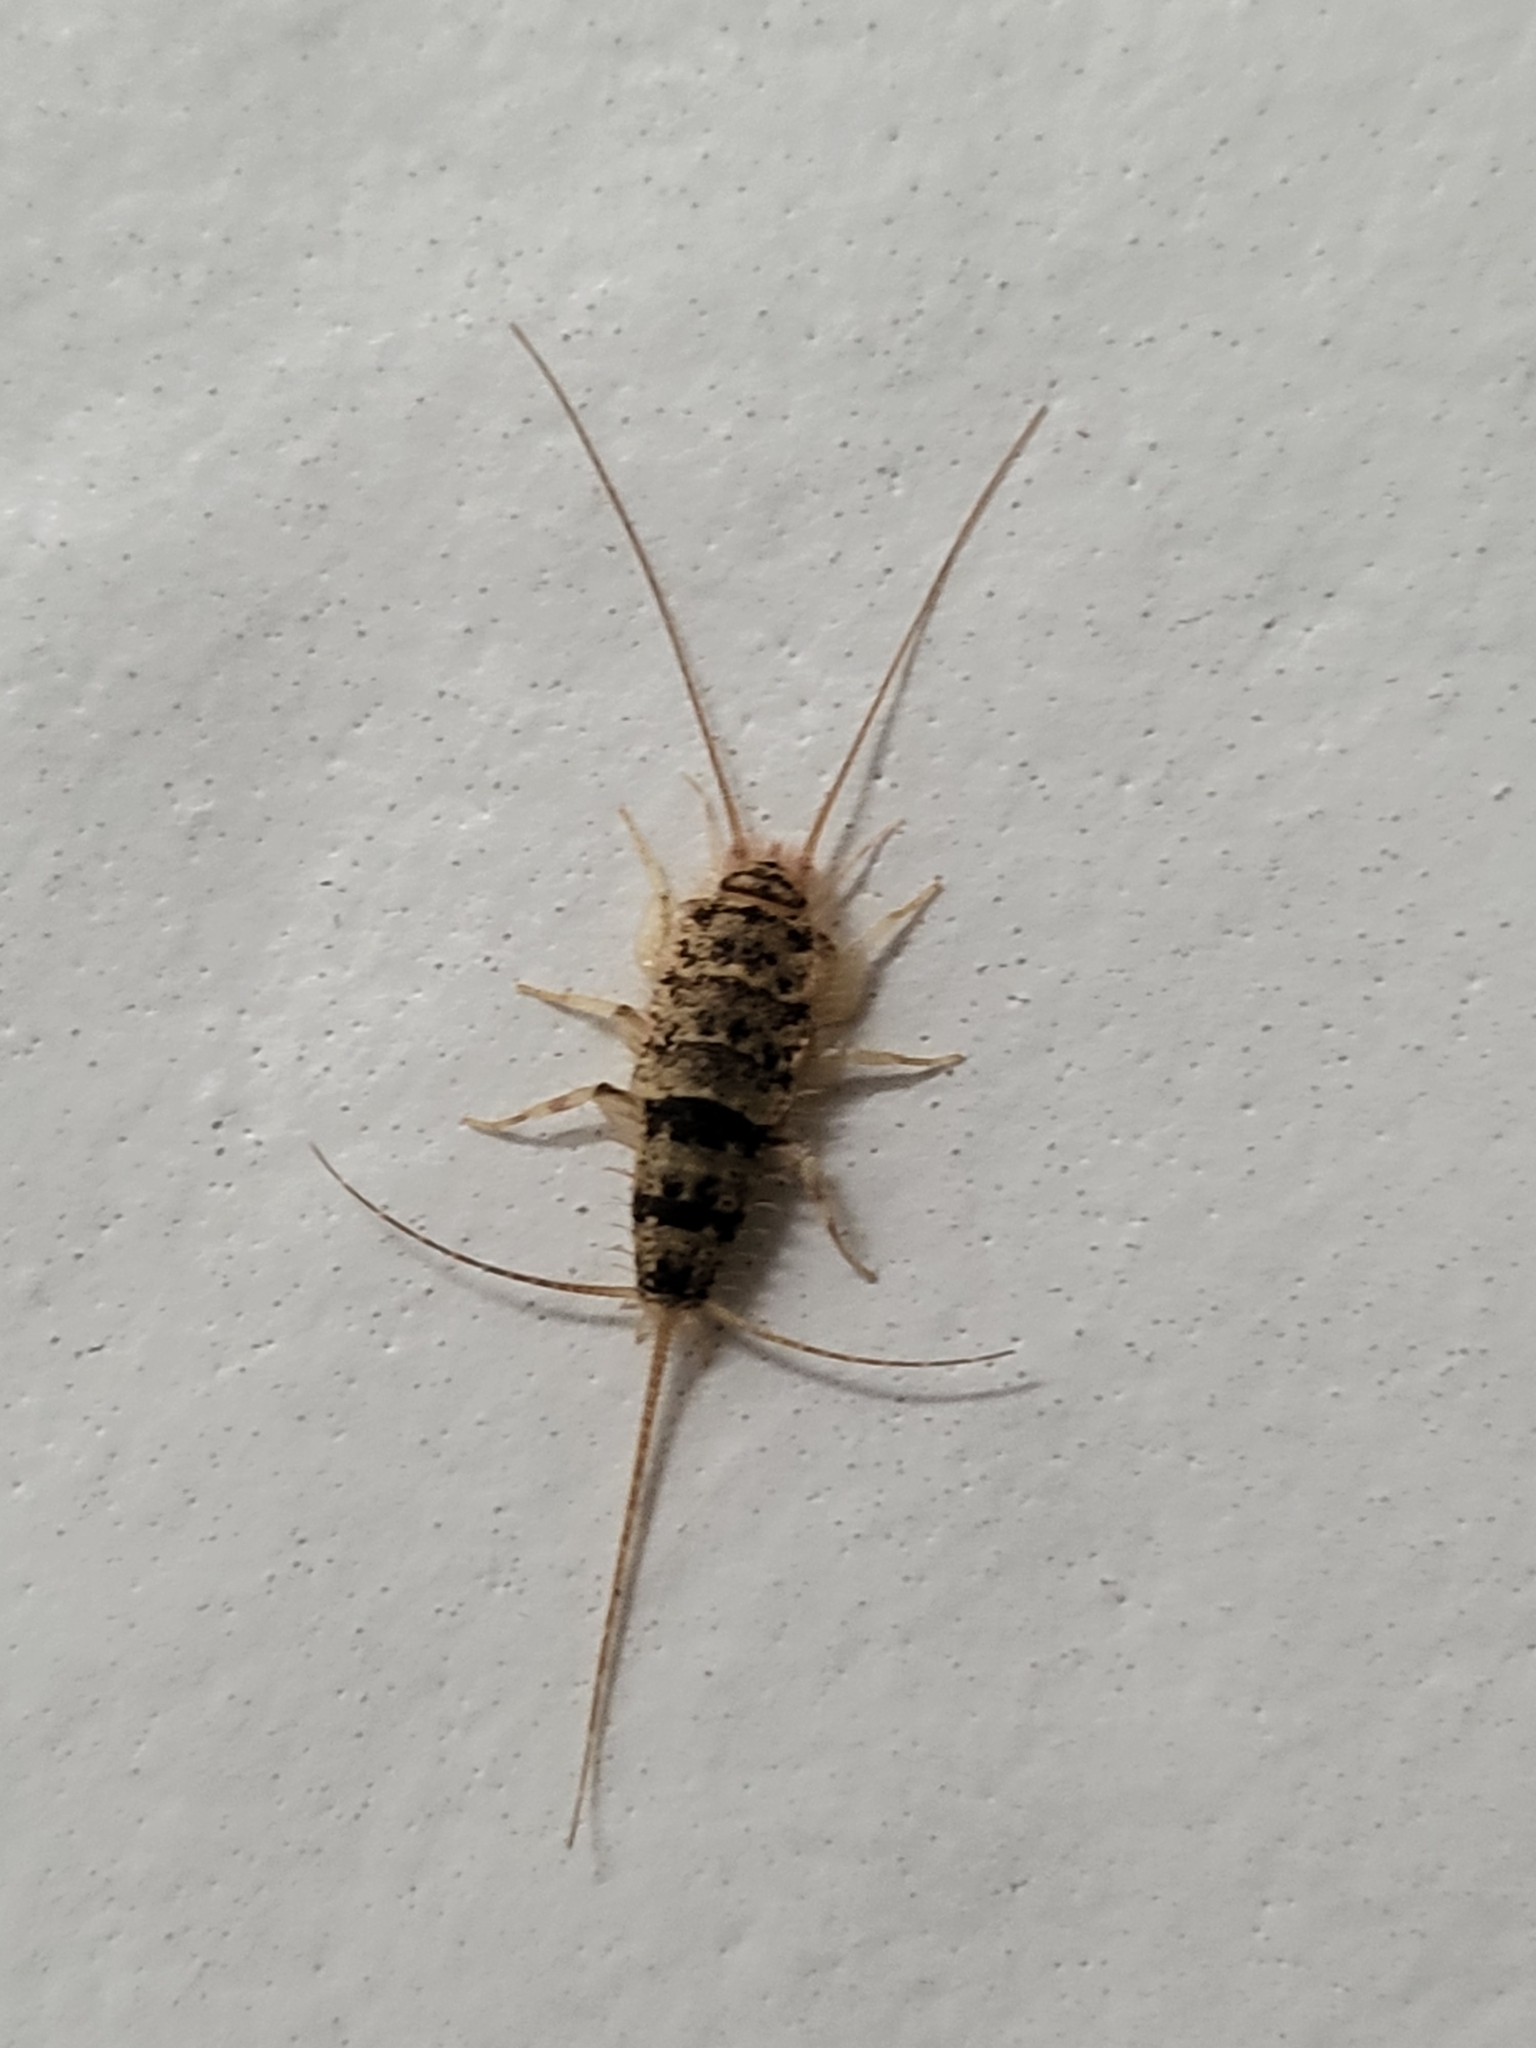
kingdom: Animalia
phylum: Arthropoda
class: Insecta
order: Zygentoma
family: Lepismatidae
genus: Thermobia
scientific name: Thermobia domestica
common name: Firebrat
